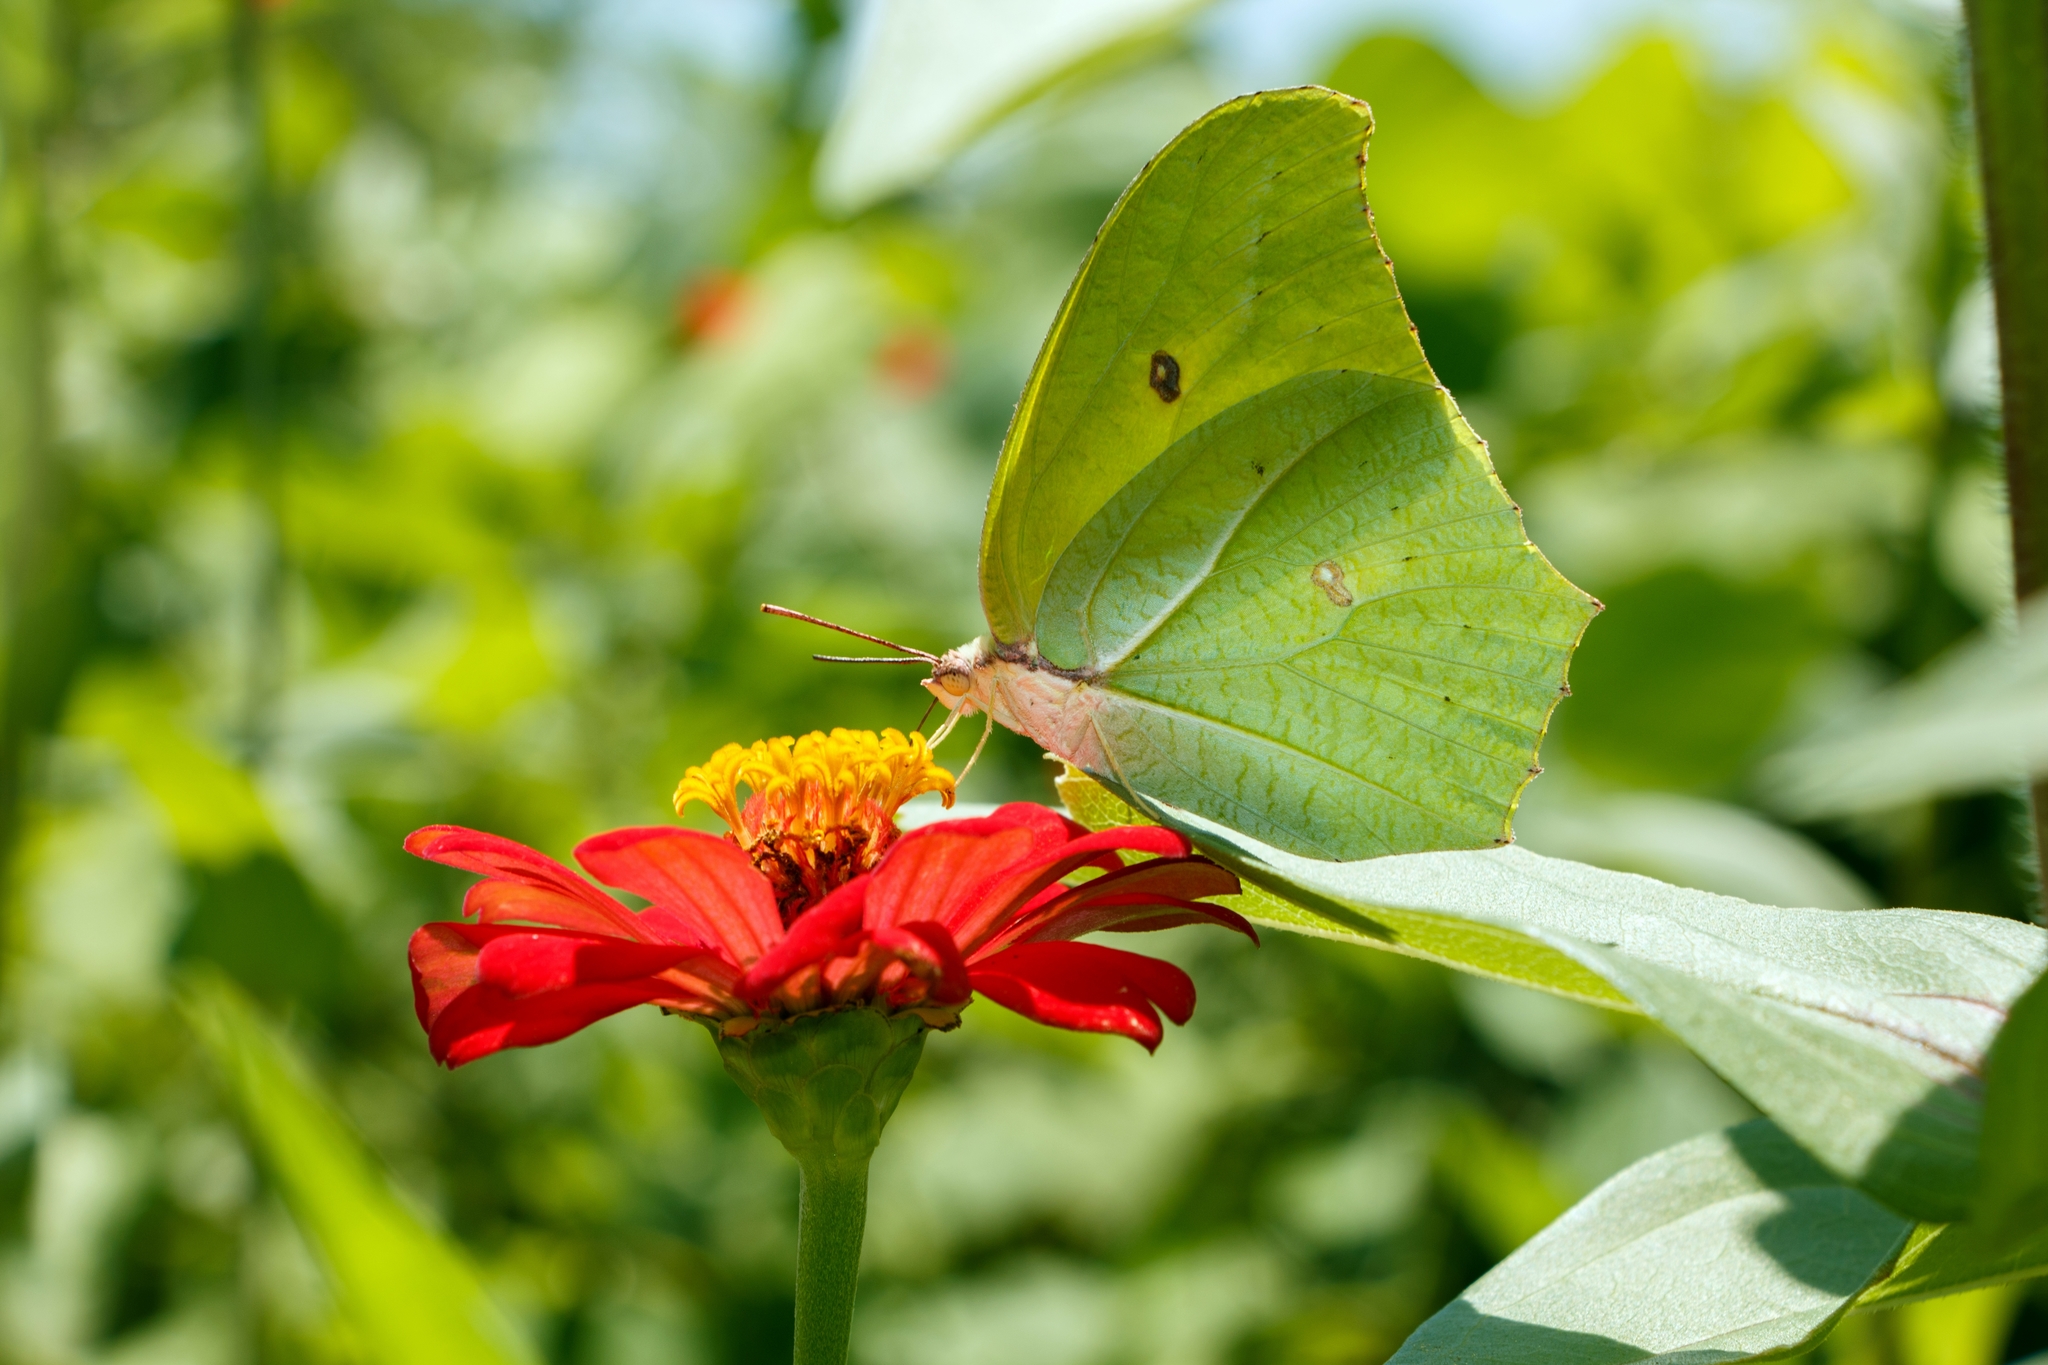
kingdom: Animalia
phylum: Arthropoda
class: Insecta
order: Lepidoptera
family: Pieridae
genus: Anteos
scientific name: Anteos maerula
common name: Angled sulphur
